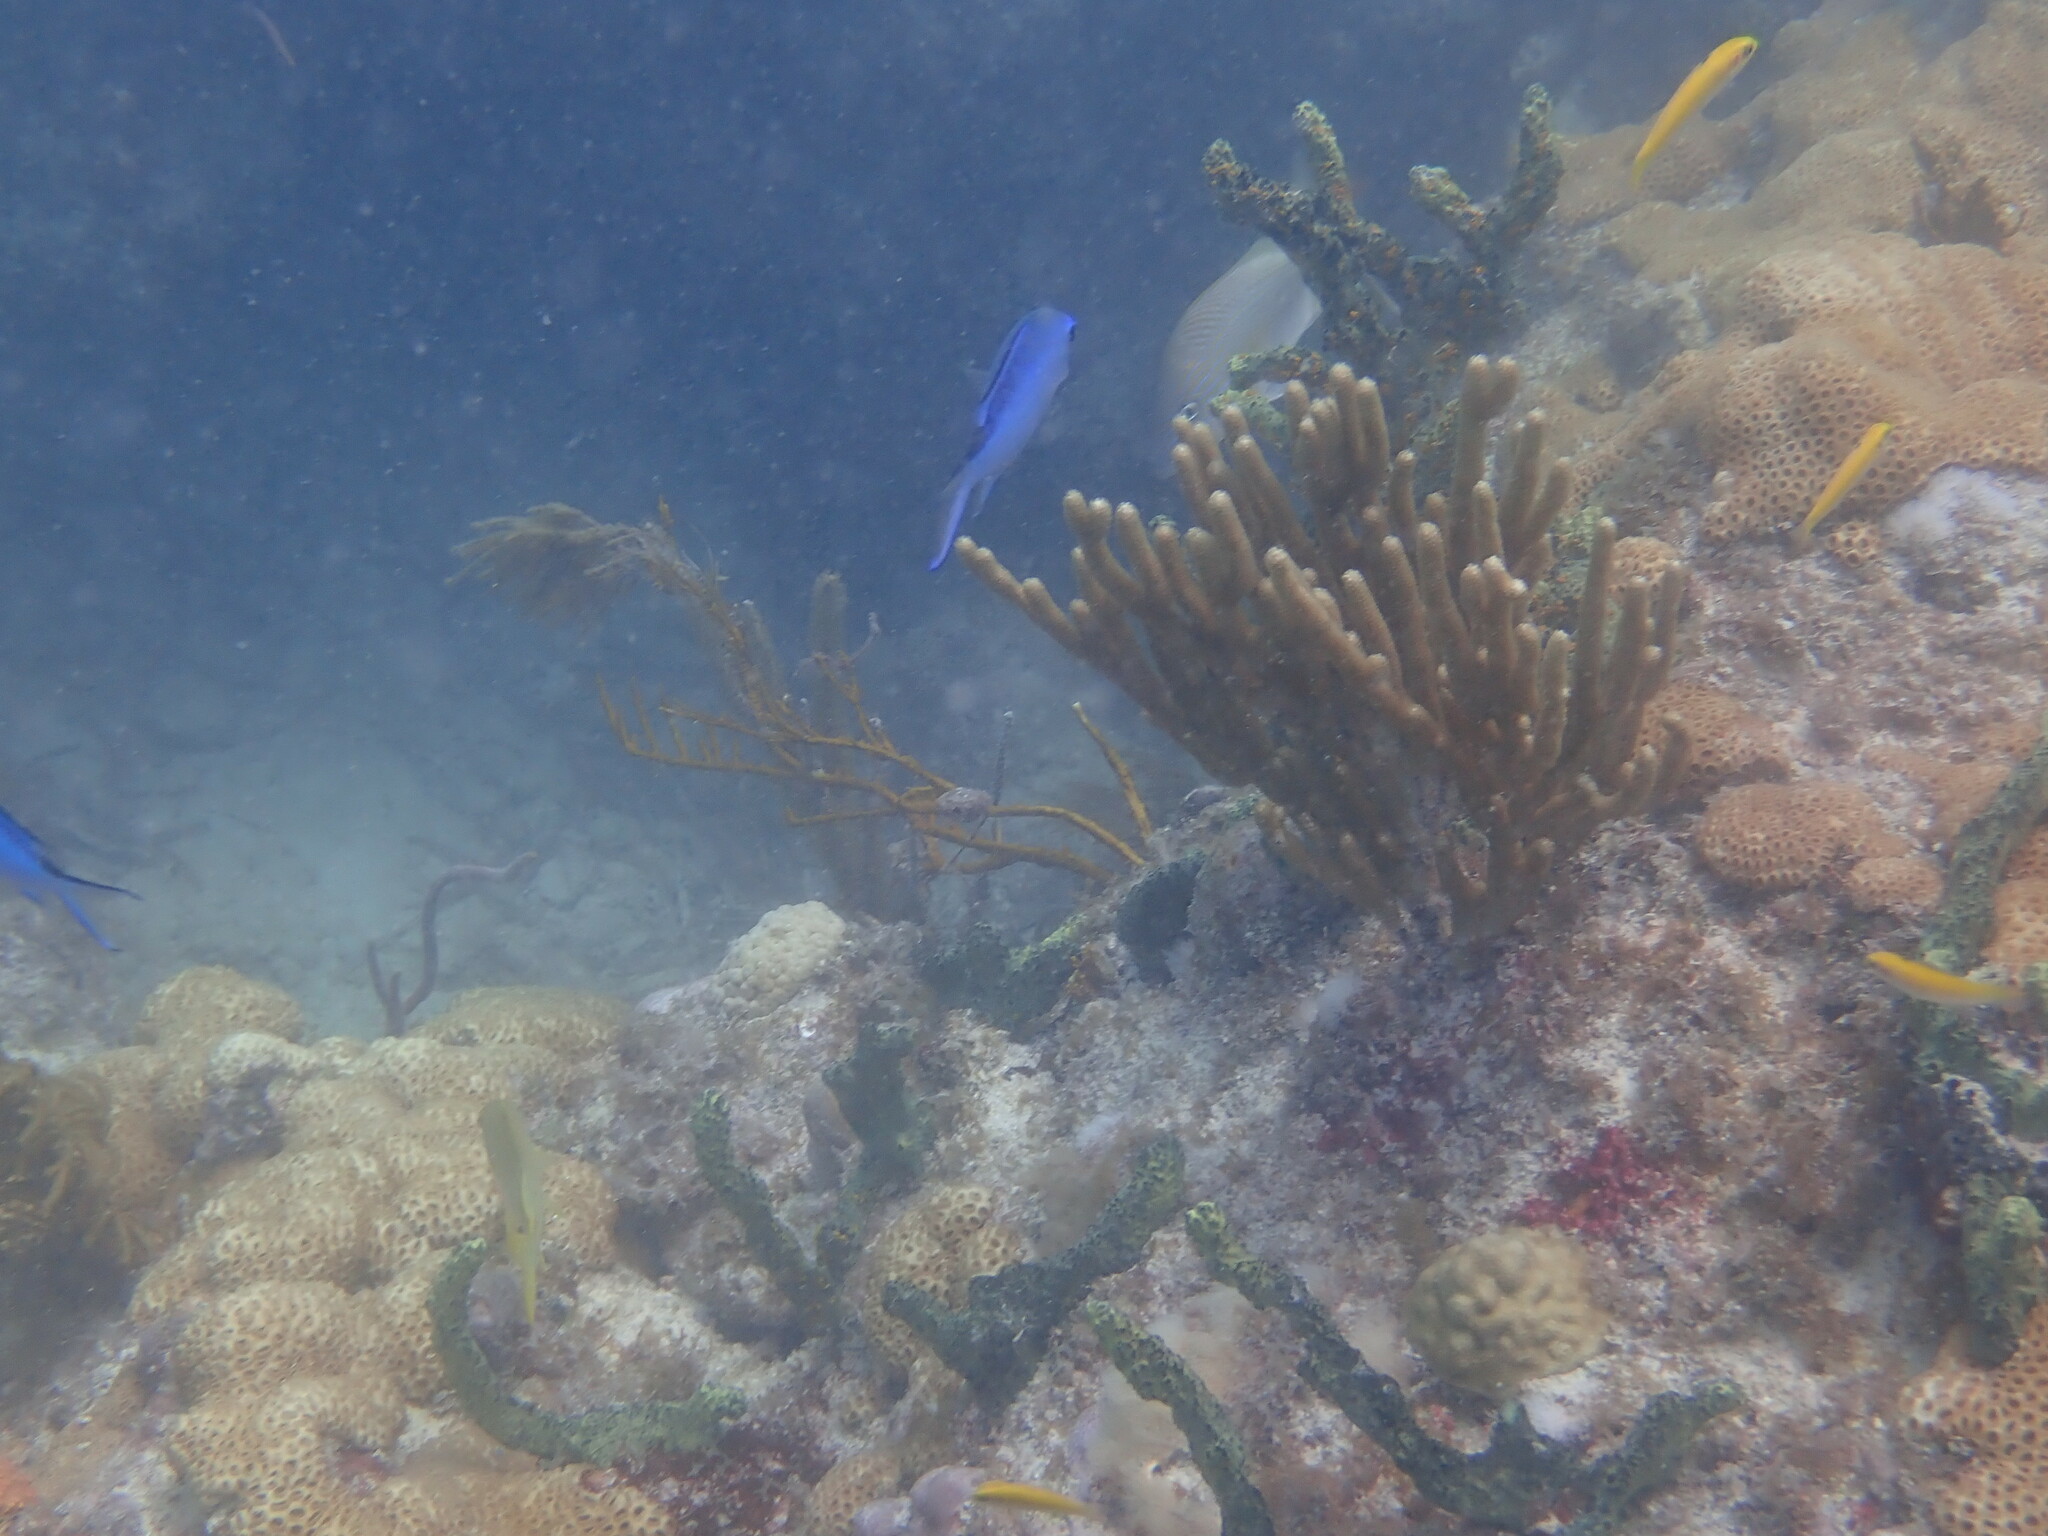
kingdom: Animalia
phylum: Chordata
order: Perciformes
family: Pomacentridae
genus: Chromis
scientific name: Chromis cyanea
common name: Blue chromis
